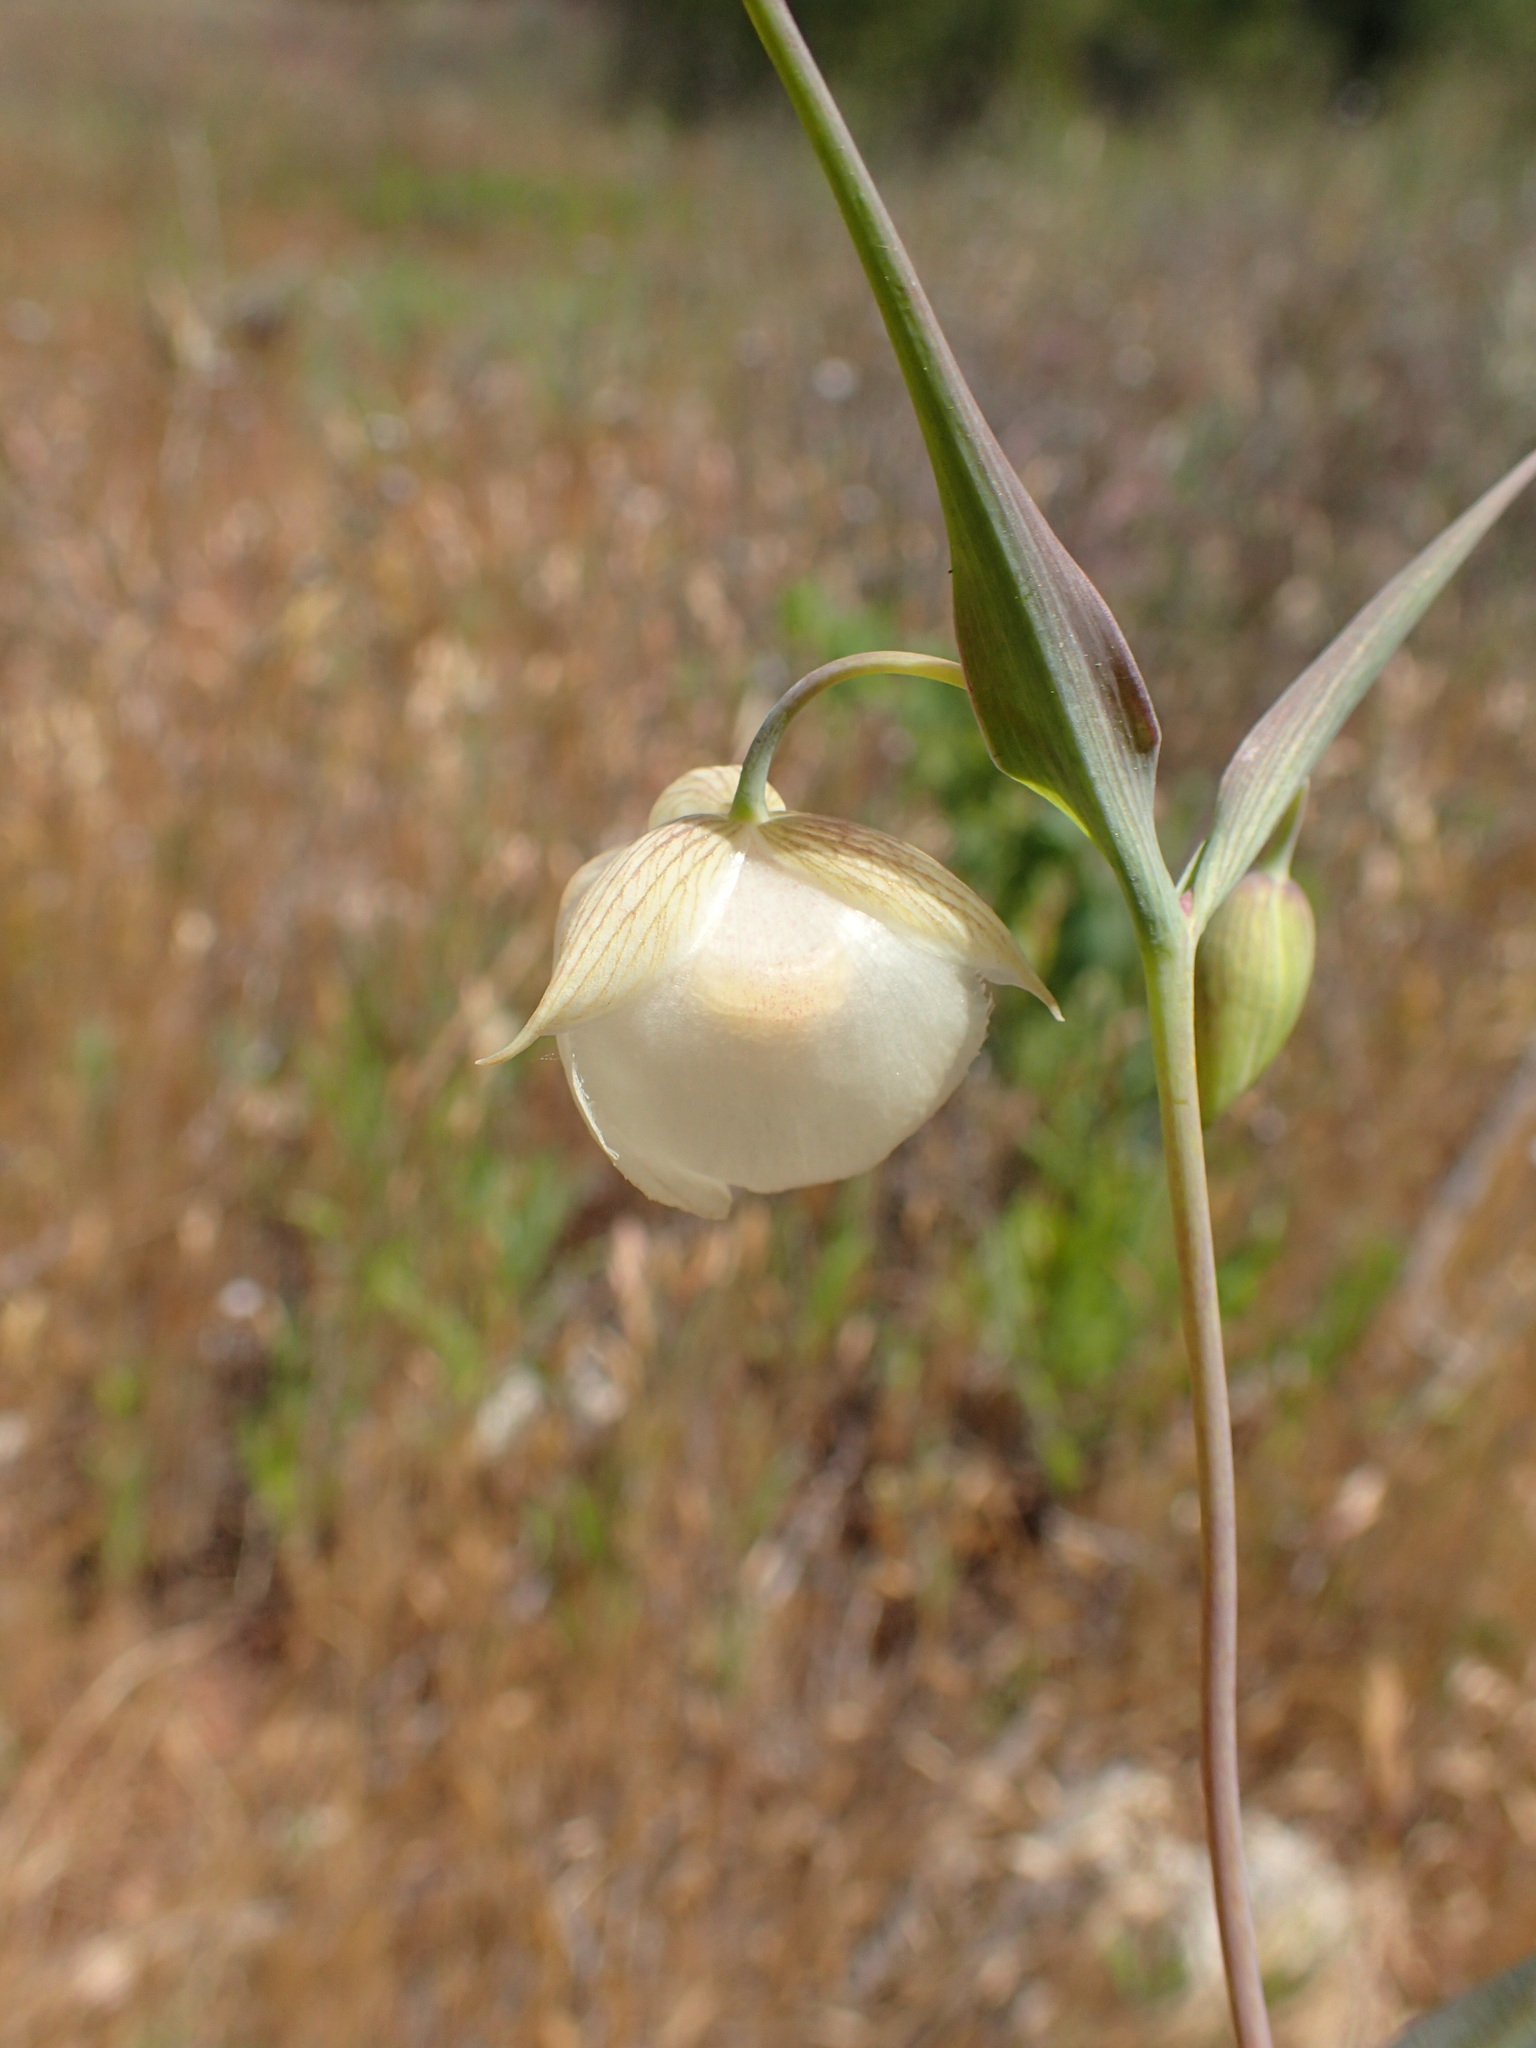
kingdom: Plantae
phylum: Tracheophyta
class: Liliopsida
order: Liliales
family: Liliaceae
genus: Calochortus
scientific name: Calochortus albus
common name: Fairy-lantern
